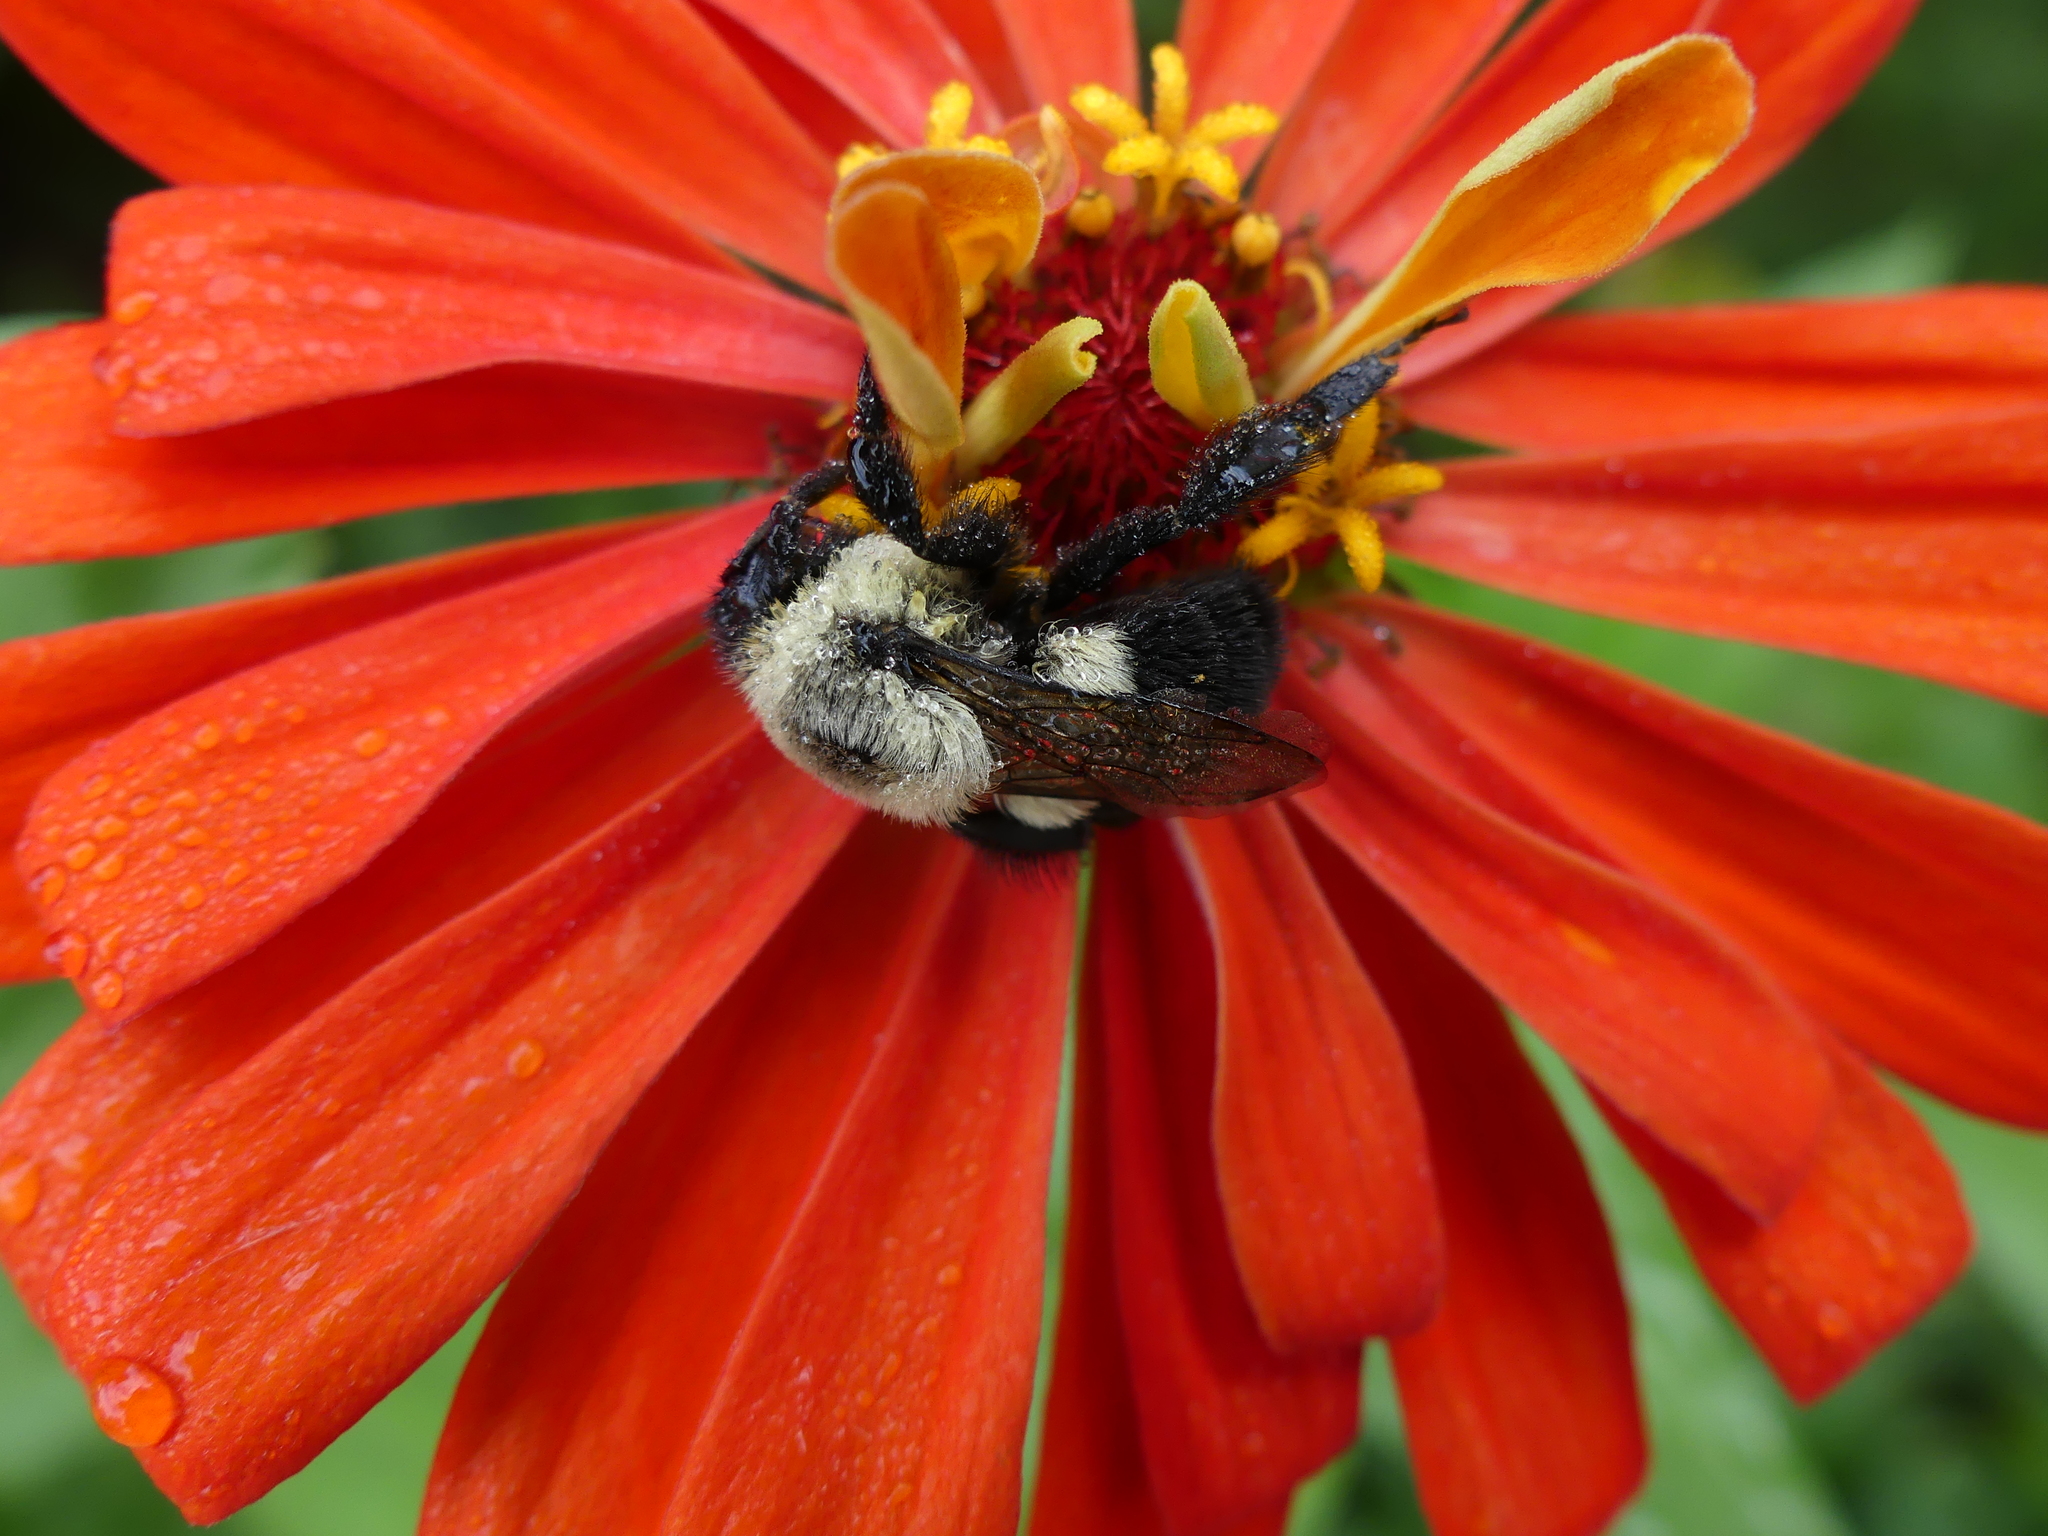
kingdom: Animalia
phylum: Arthropoda
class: Insecta
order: Hymenoptera
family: Apidae
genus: Bombus
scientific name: Bombus impatiens
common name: Common eastern bumble bee
